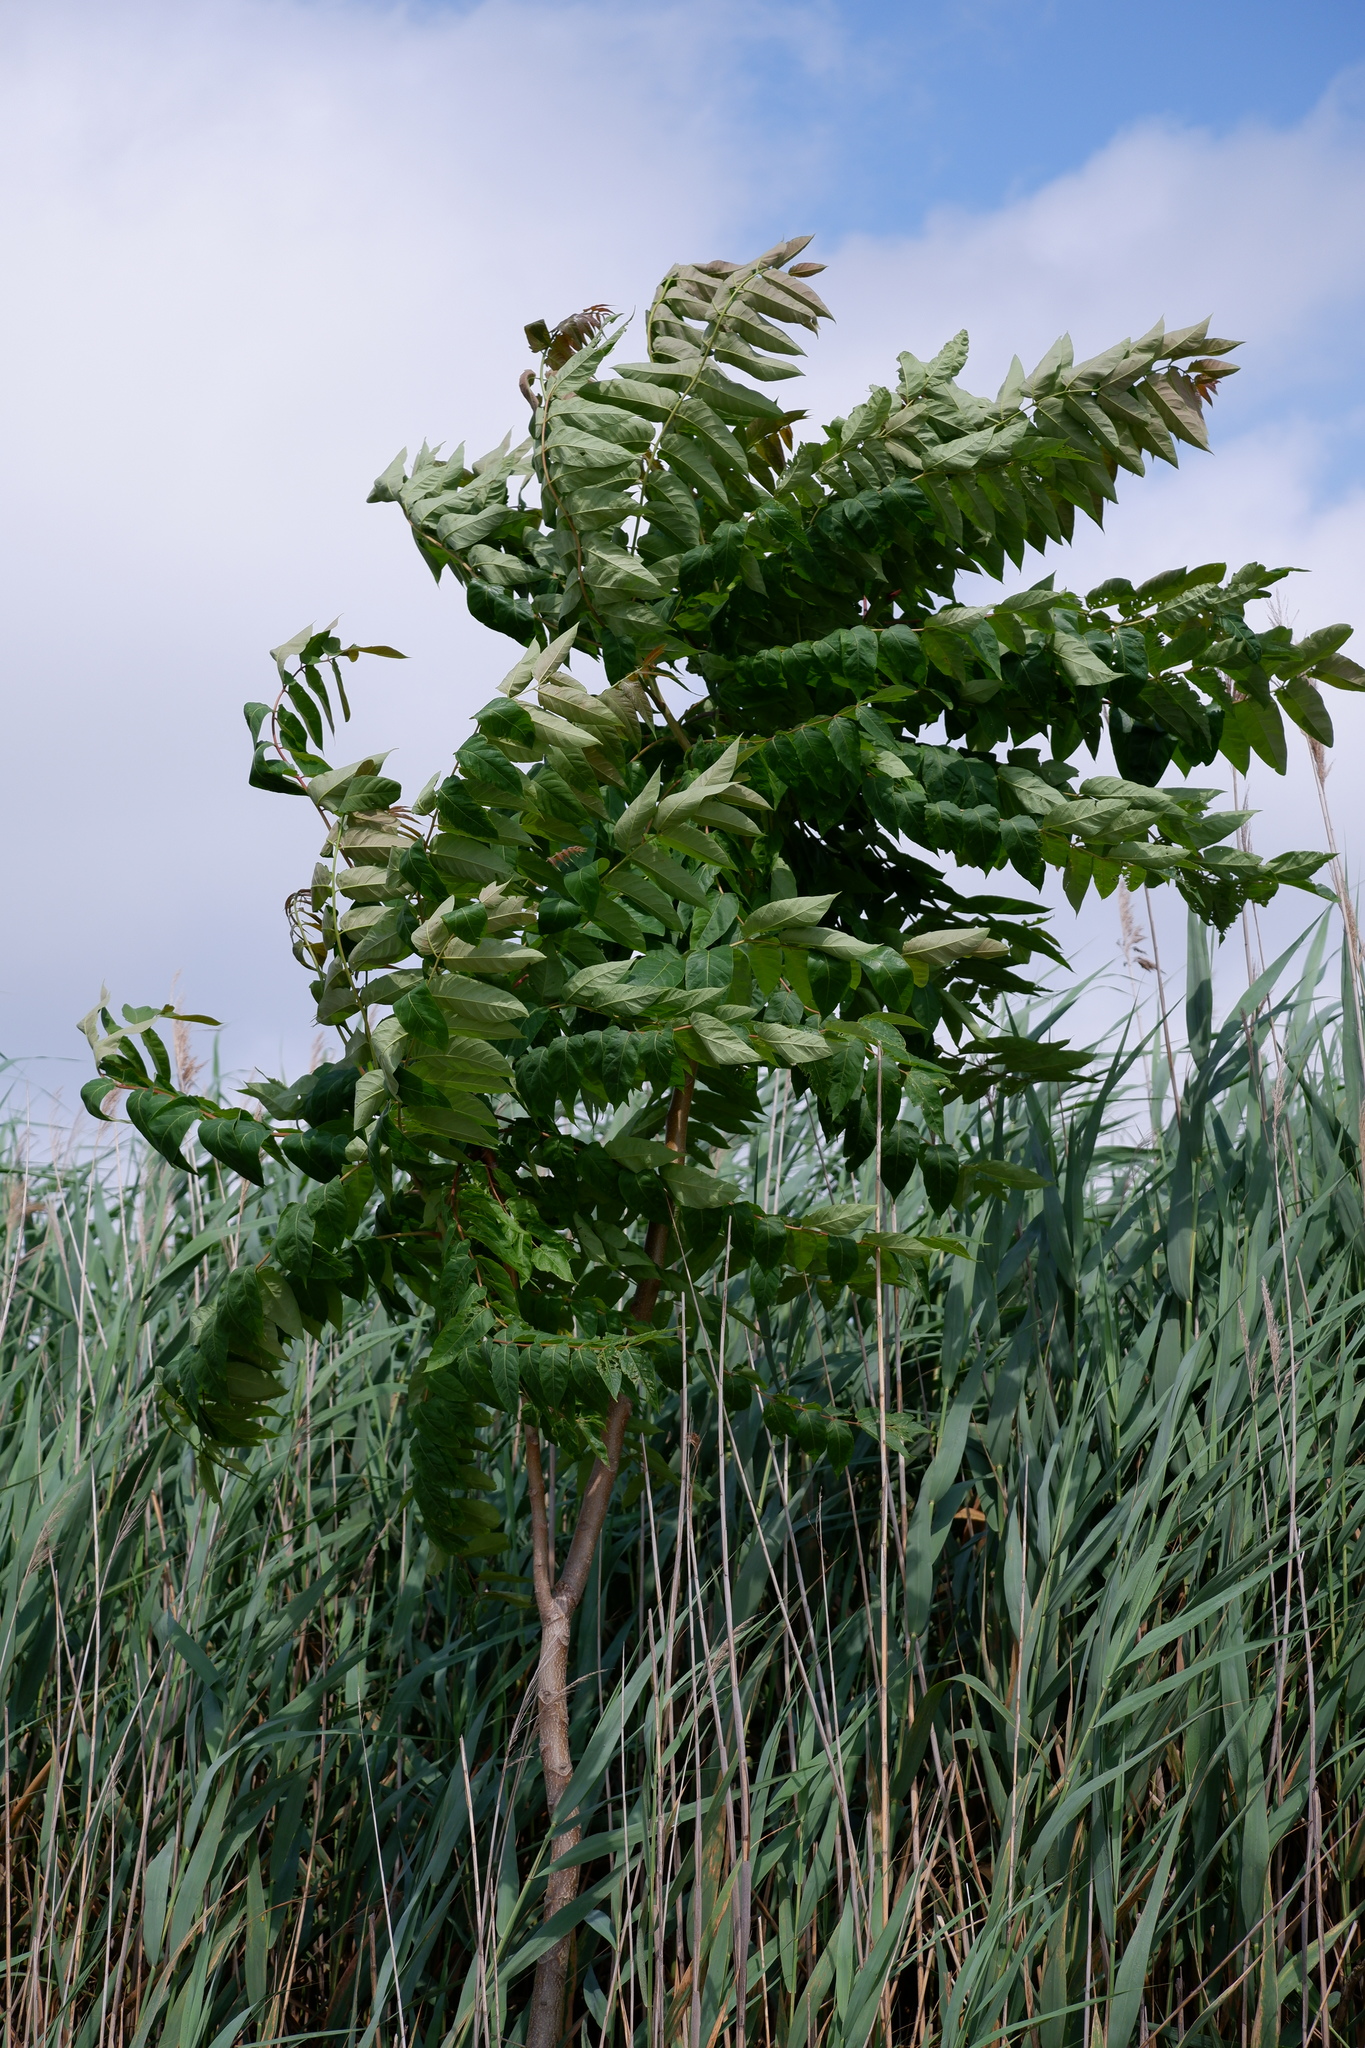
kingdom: Plantae
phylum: Tracheophyta
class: Magnoliopsida
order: Sapindales
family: Simaroubaceae
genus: Ailanthus
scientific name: Ailanthus altissima
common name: Tree-of-heaven
